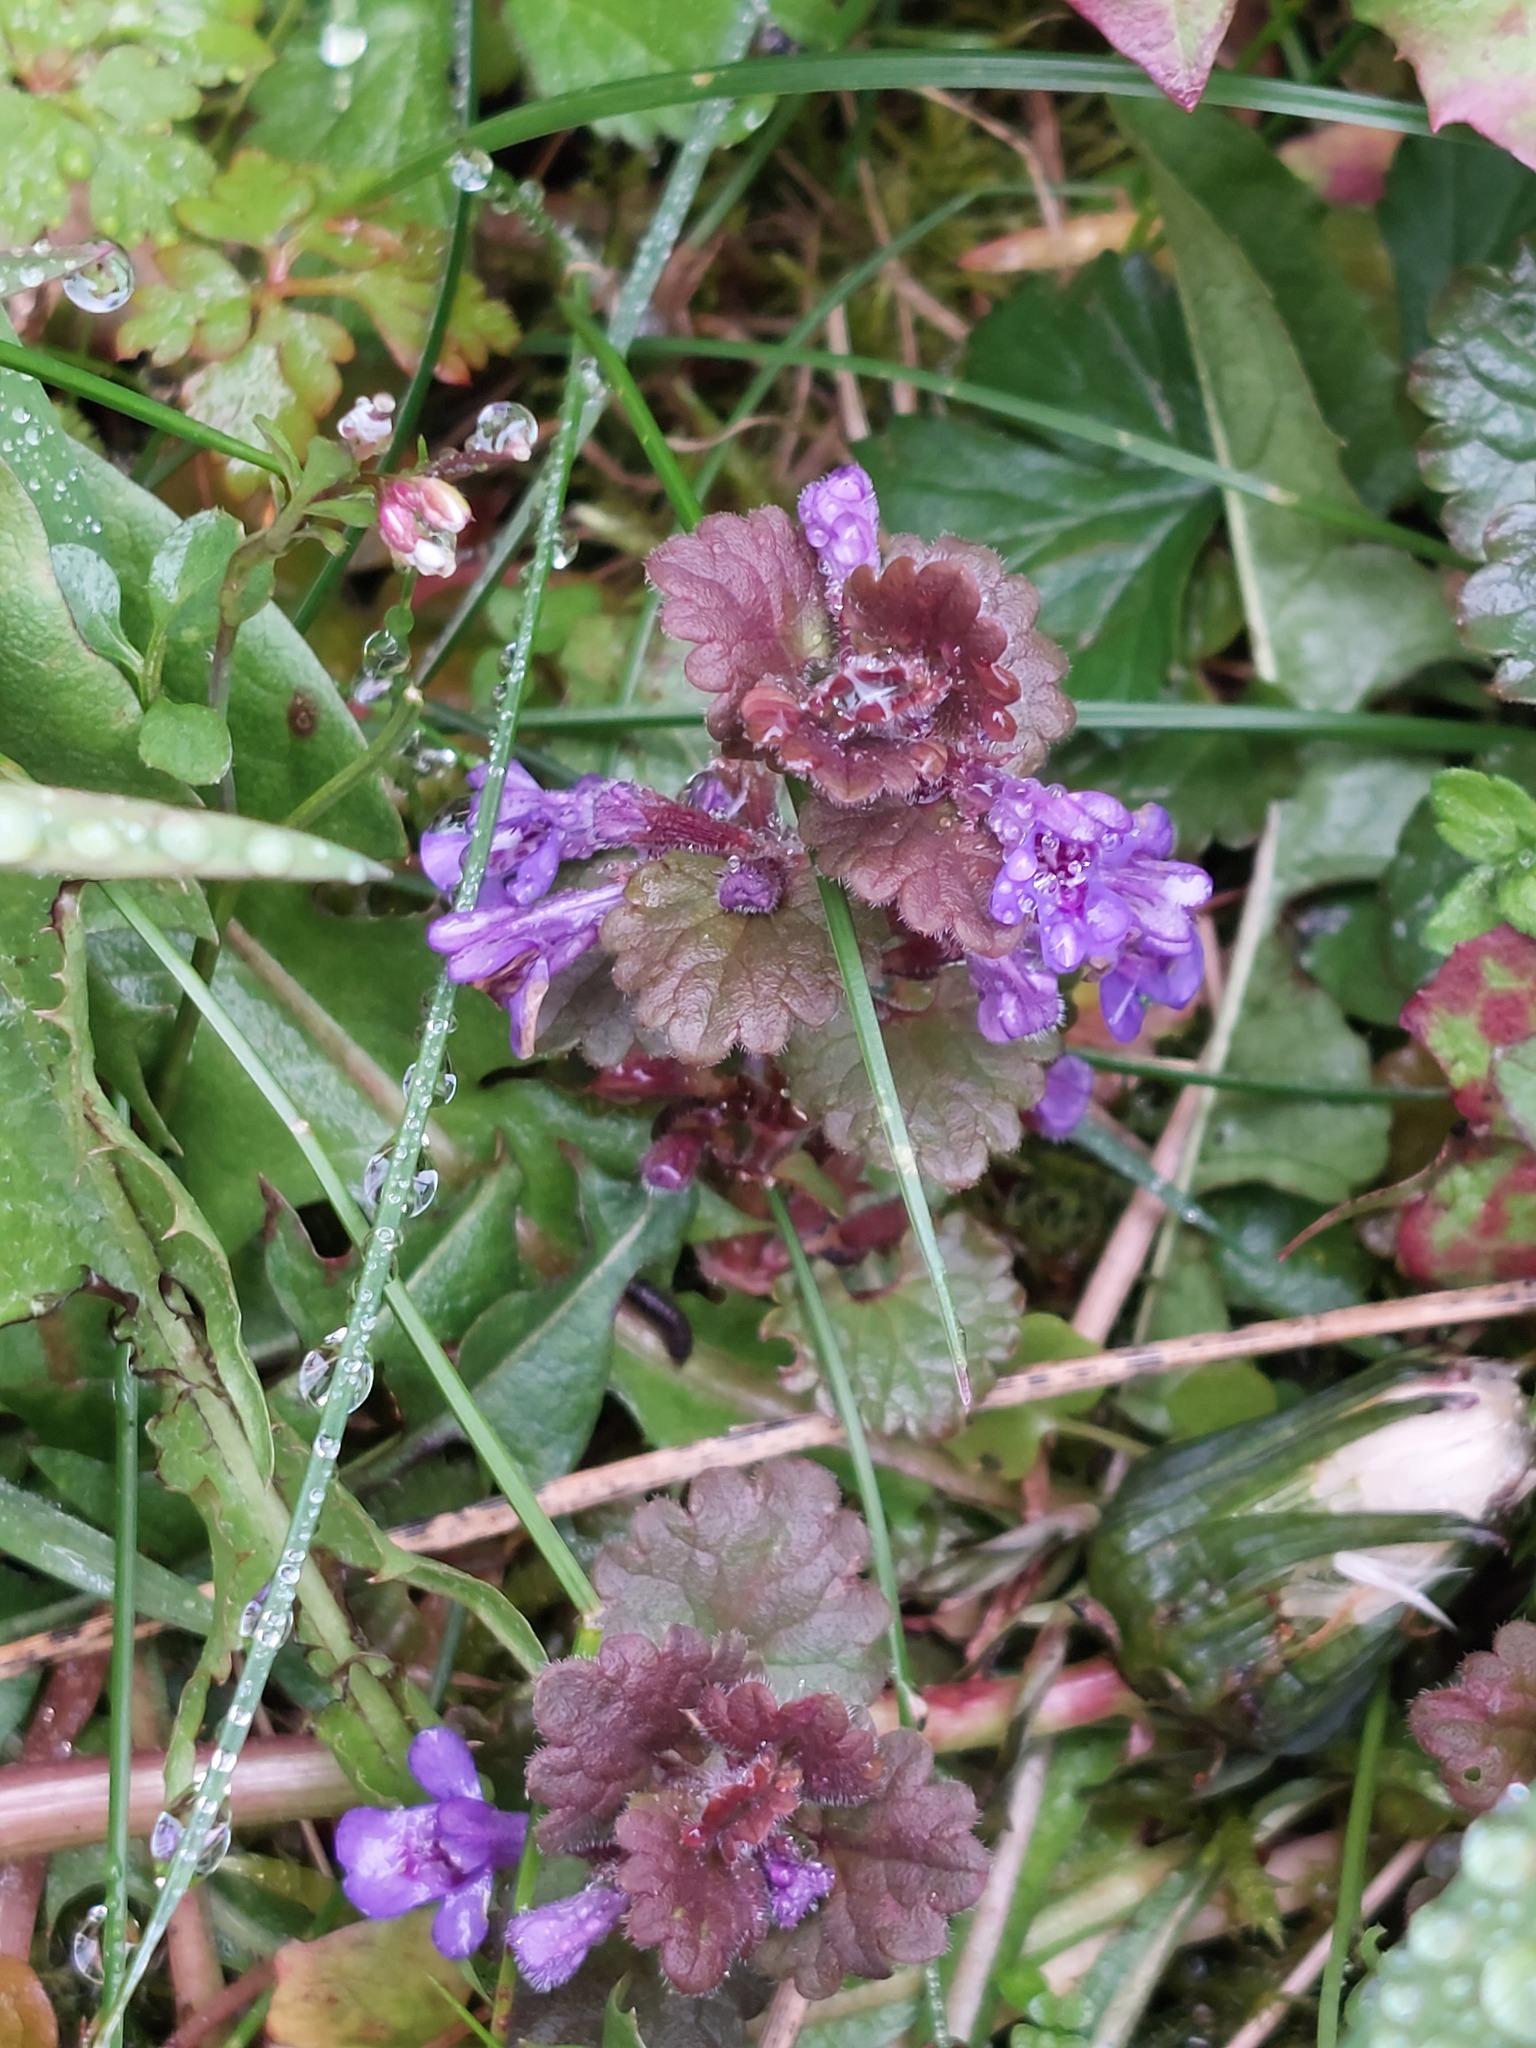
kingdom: Plantae
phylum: Tracheophyta
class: Magnoliopsida
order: Lamiales
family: Lamiaceae
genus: Glechoma
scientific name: Glechoma hederacea
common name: Ground ivy
